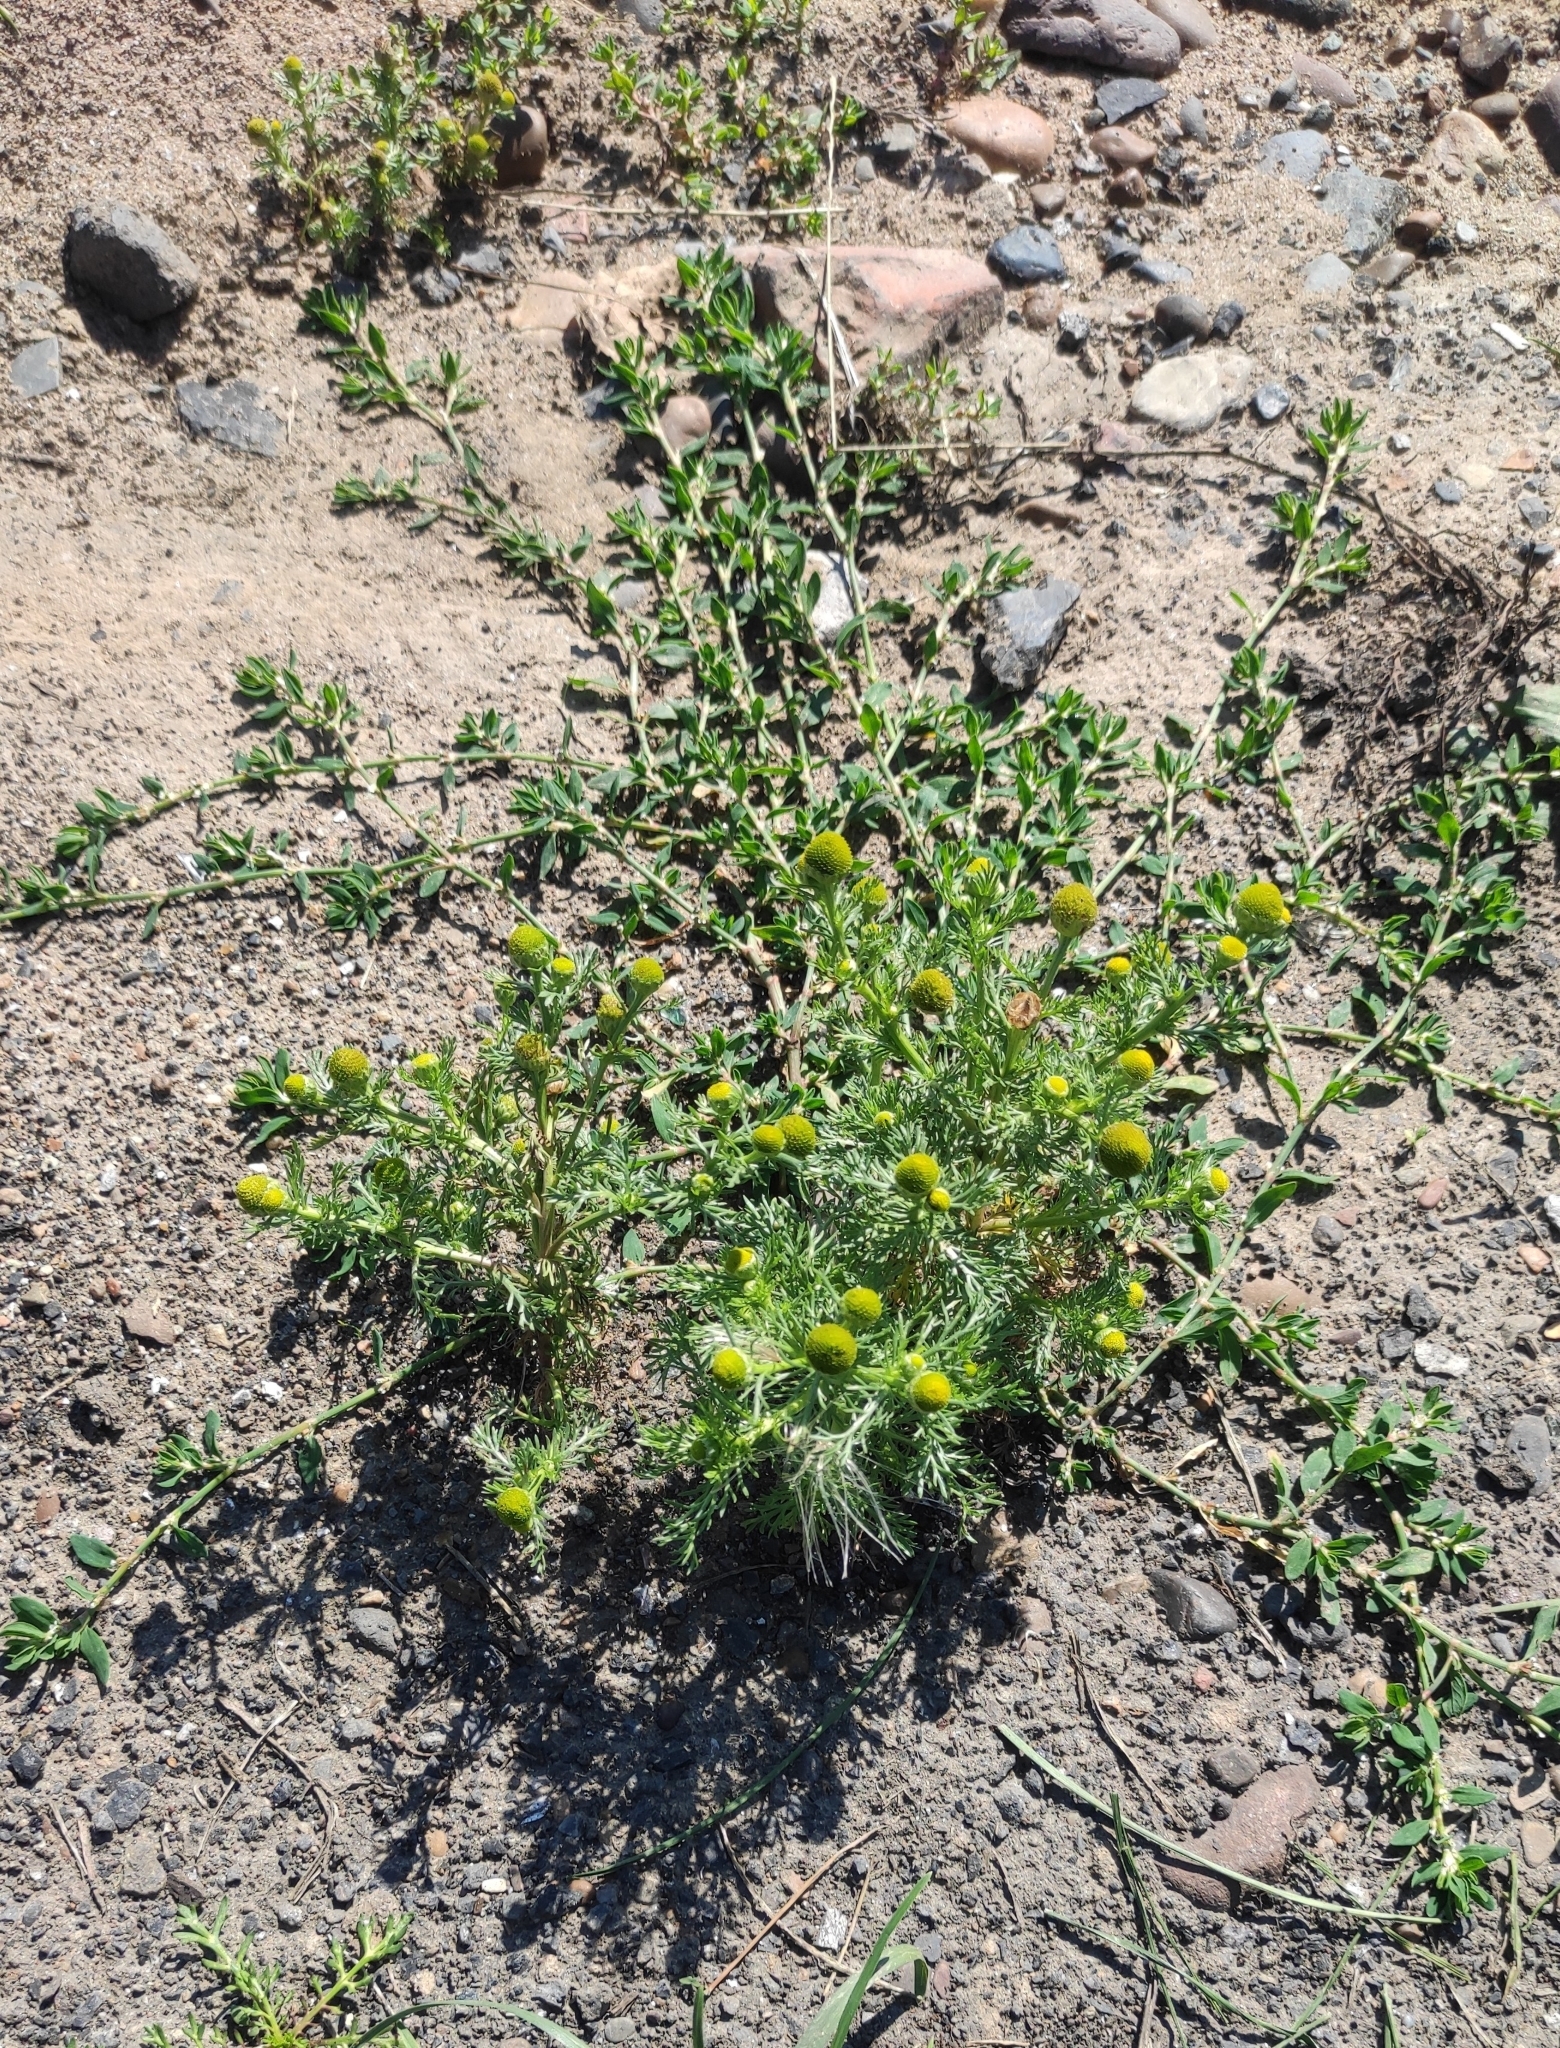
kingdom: Plantae
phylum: Tracheophyta
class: Magnoliopsida
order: Asterales
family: Asteraceae
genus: Matricaria
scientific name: Matricaria discoidea
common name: Disc mayweed
